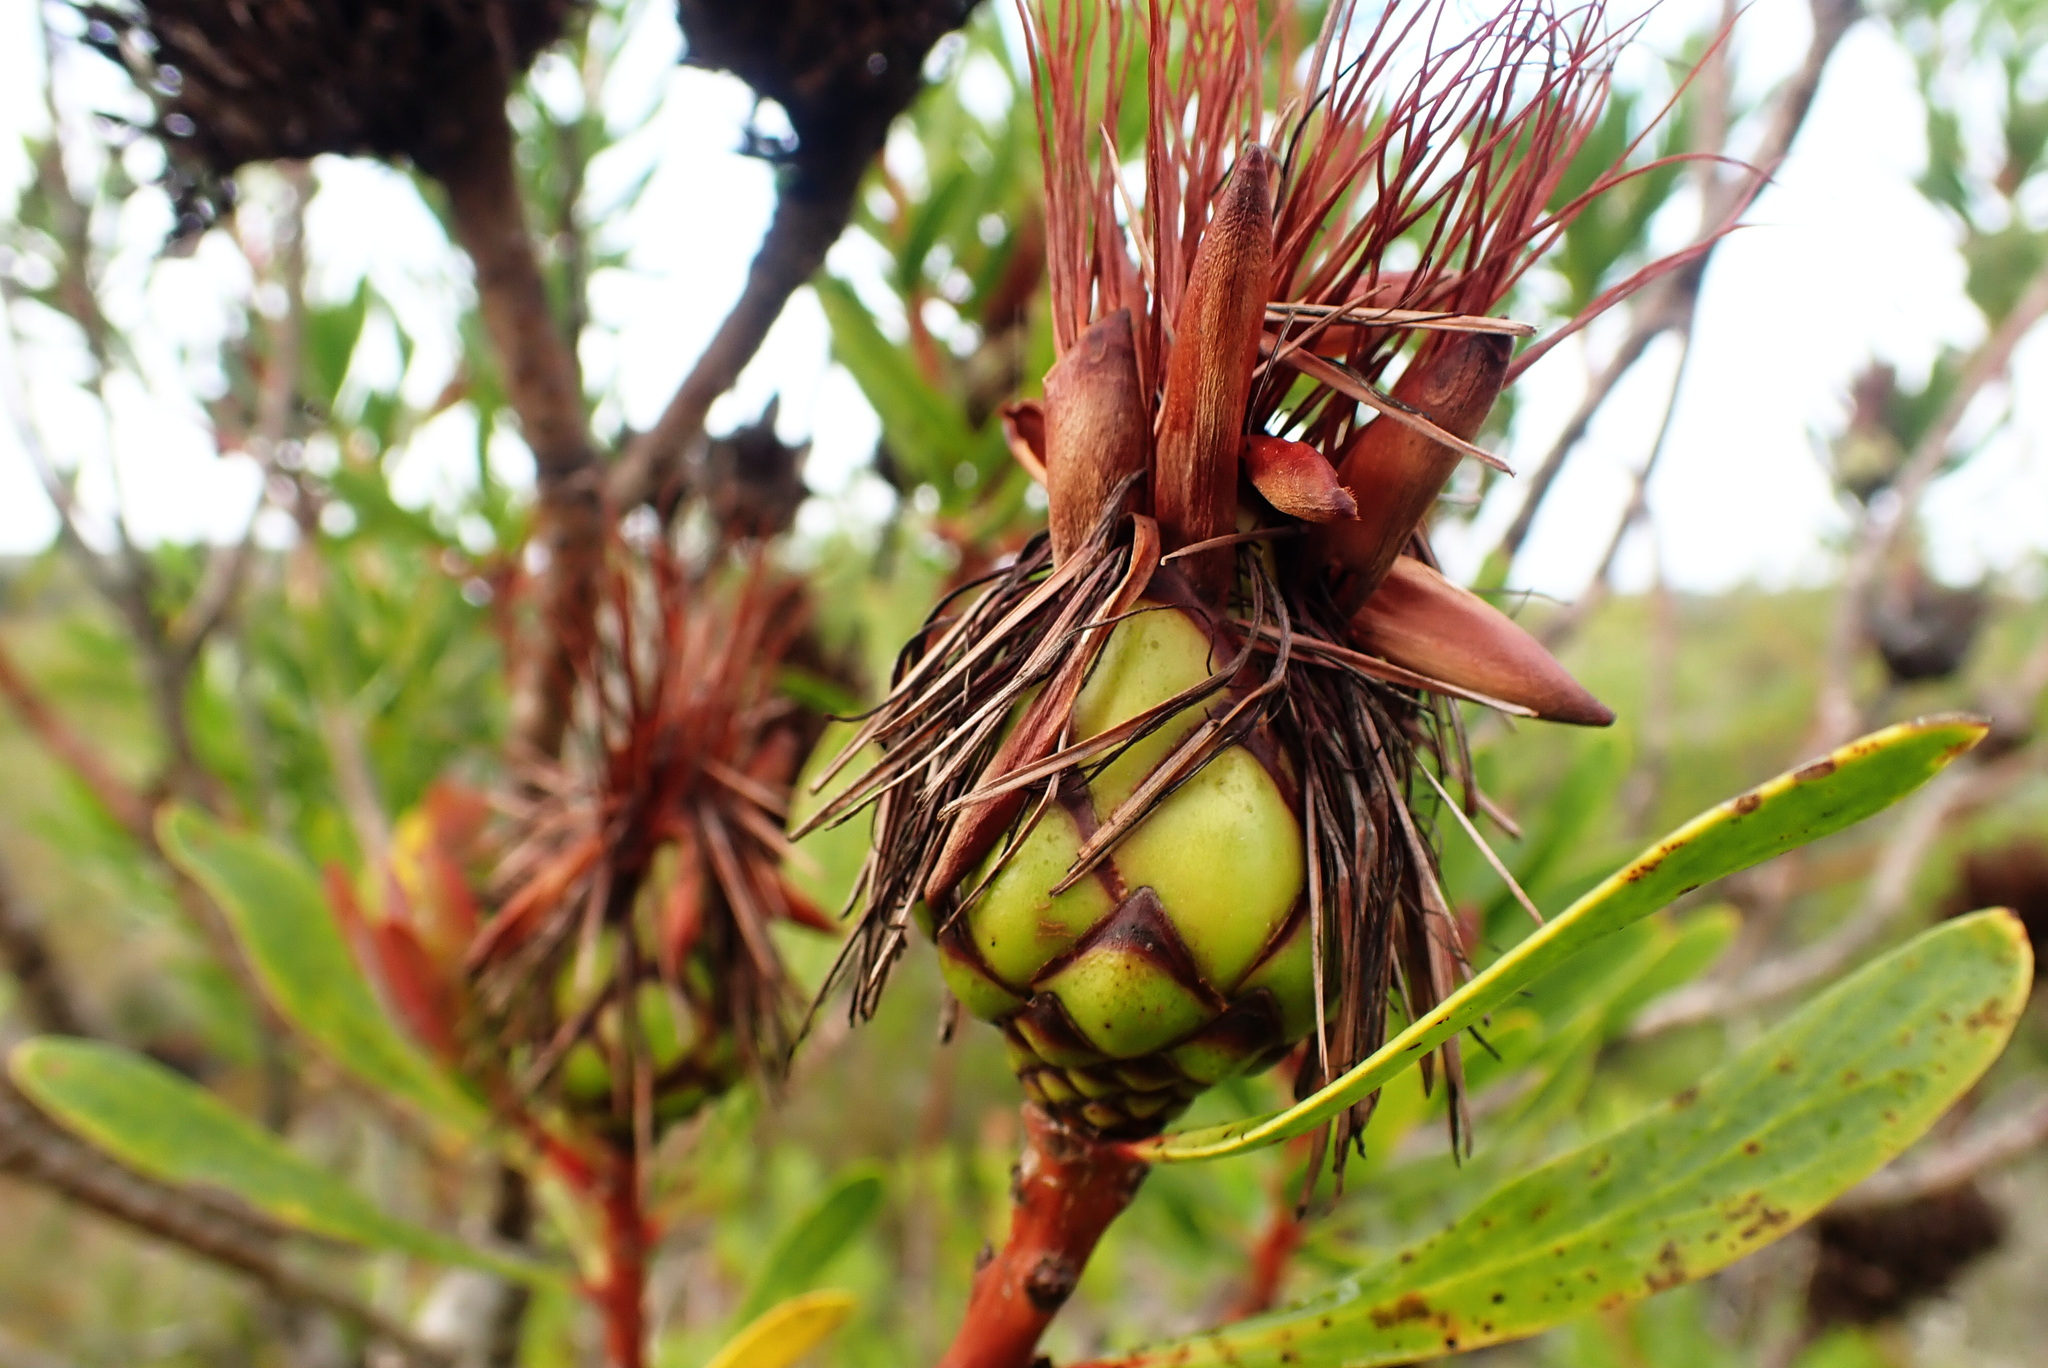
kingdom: Plantae
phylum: Tracheophyta
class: Magnoliopsida
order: Proteales
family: Proteaceae
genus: Protea
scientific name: Protea lanceolata
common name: Lance-leaved protea
